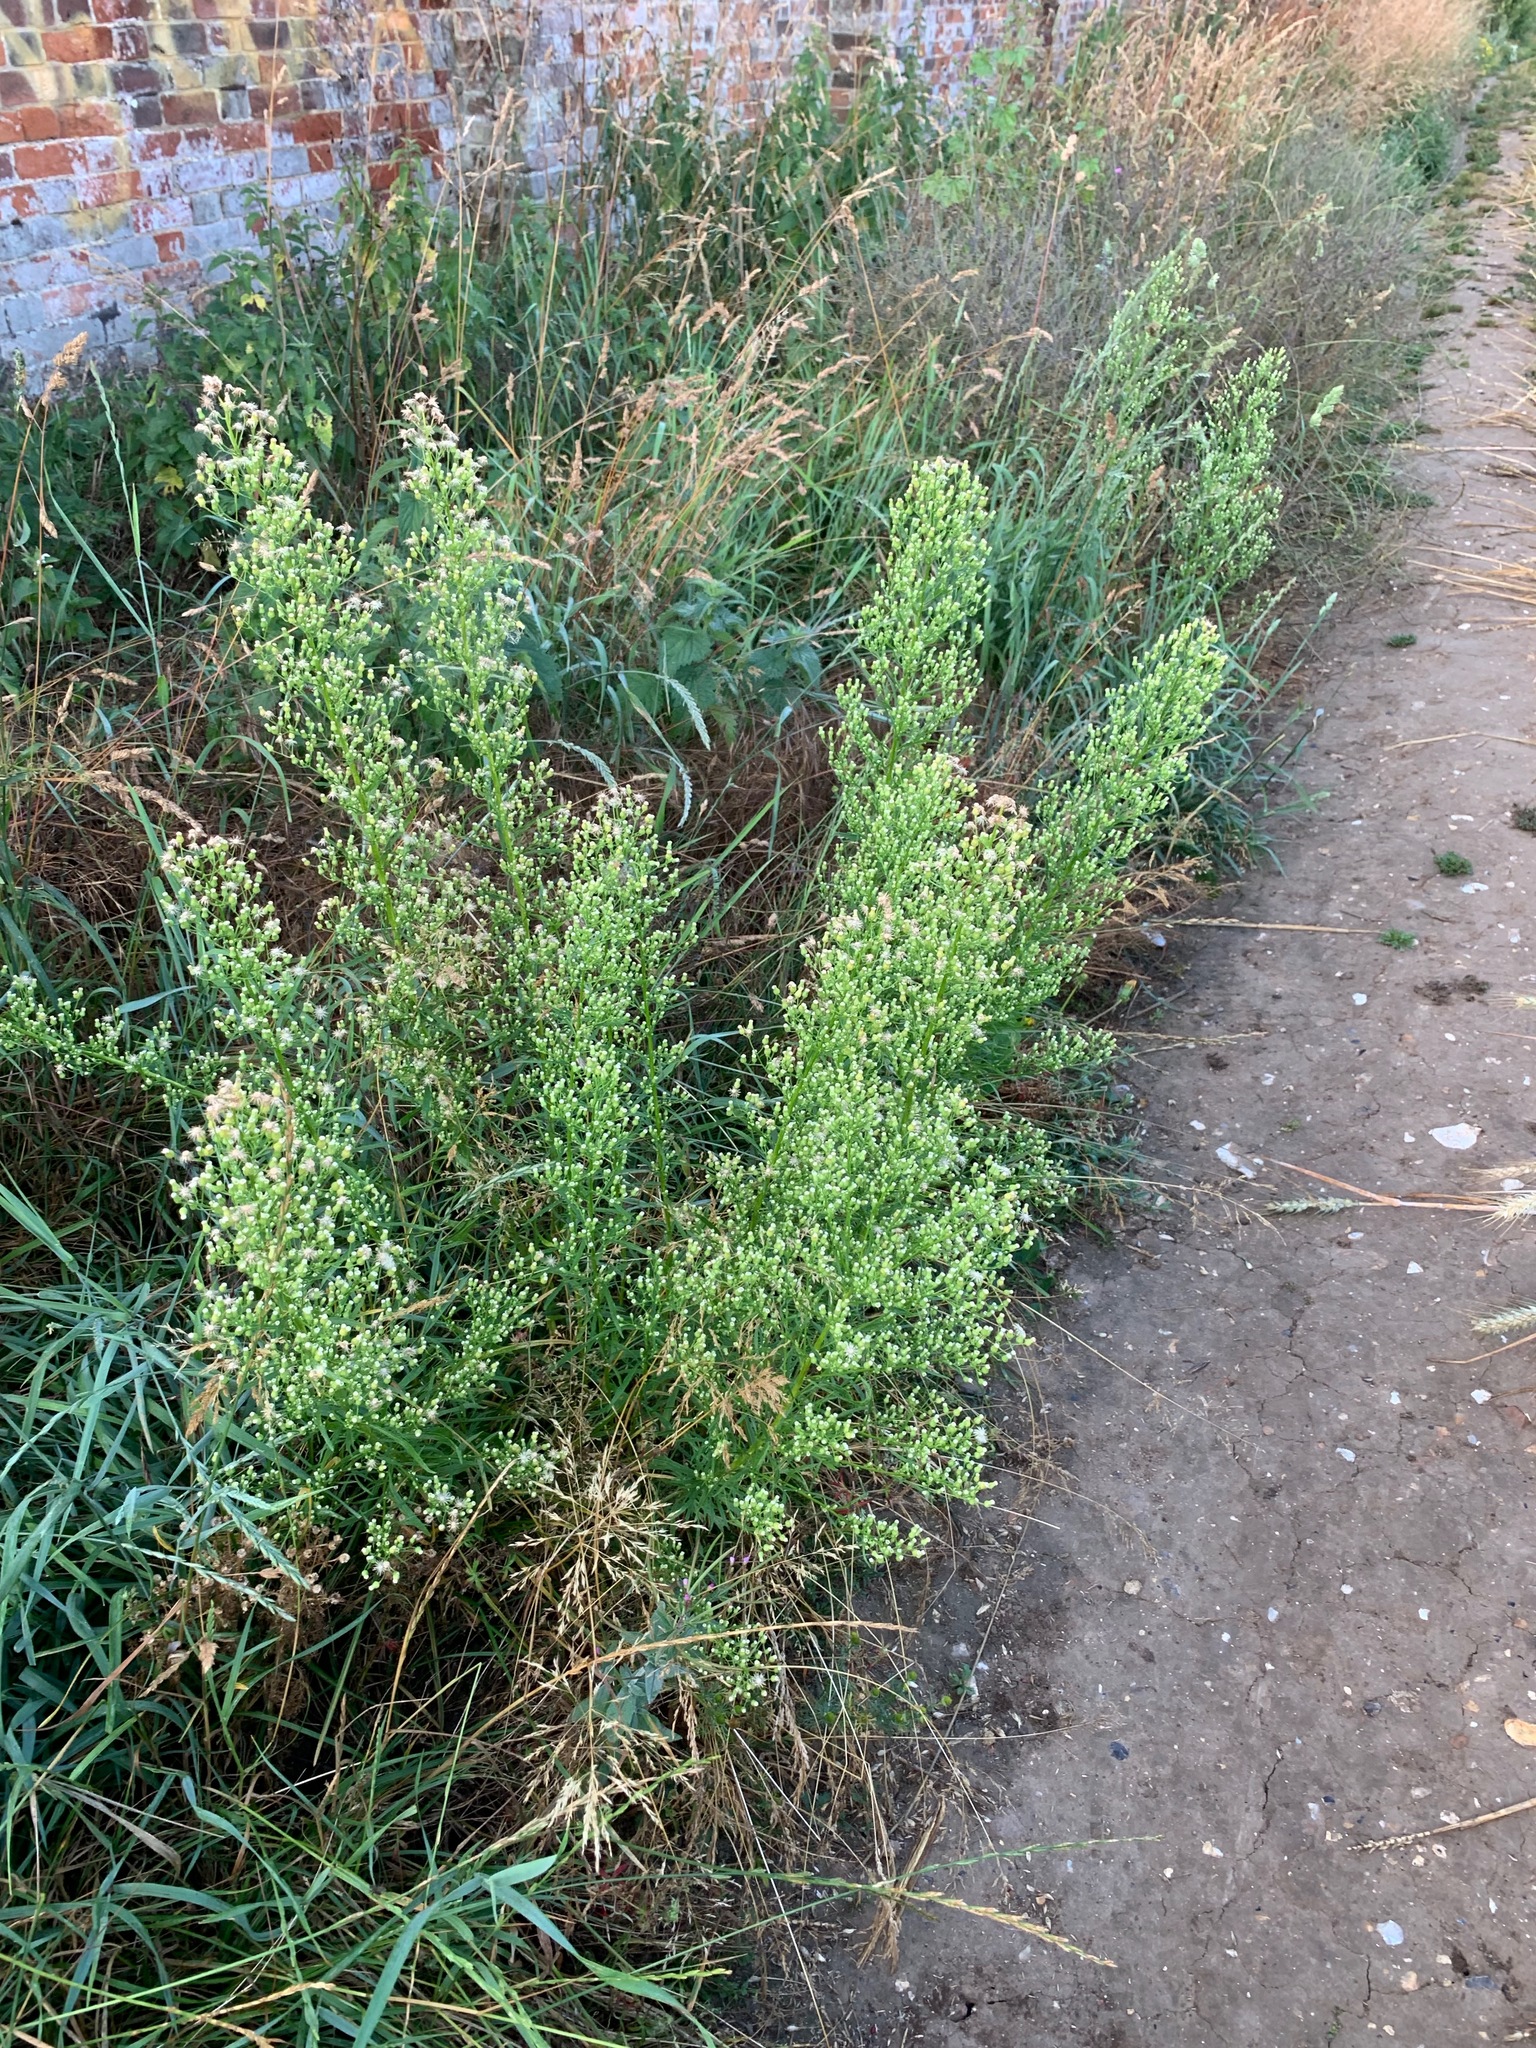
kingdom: Plantae
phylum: Tracheophyta
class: Magnoliopsida
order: Asterales
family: Asteraceae
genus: Erigeron
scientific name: Erigeron canadensis
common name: Canadian fleabane
